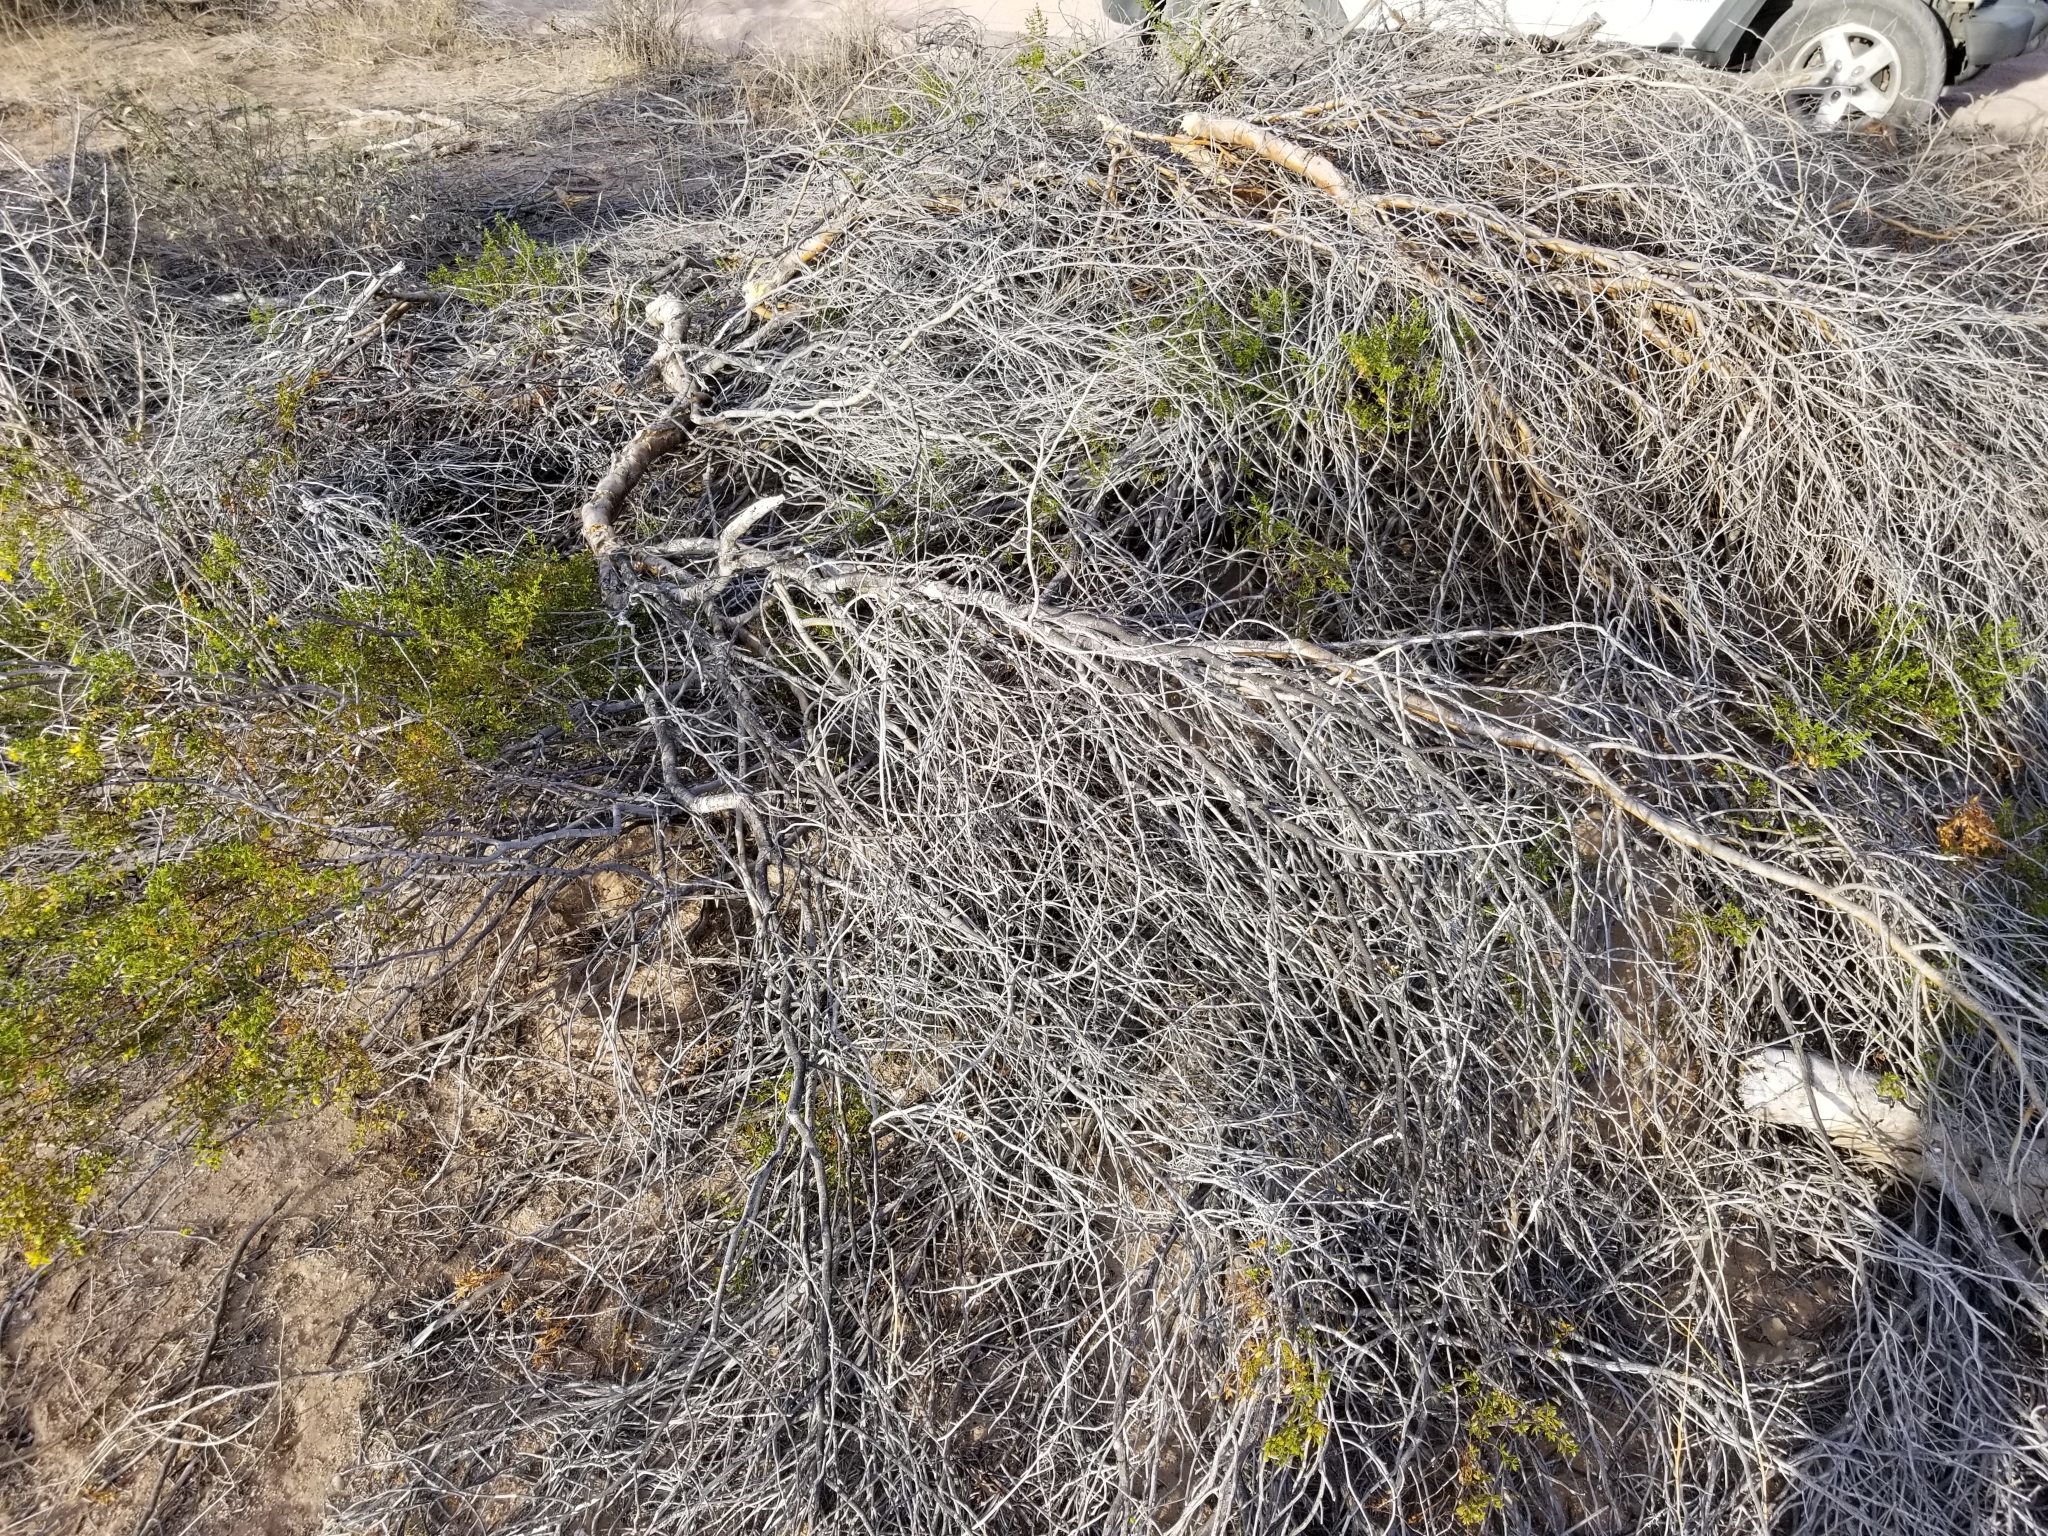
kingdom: Plantae
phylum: Tracheophyta
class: Magnoliopsida
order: Fabales
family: Fabaceae
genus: Parkinsonia
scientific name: Parkinsonia florida
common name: Blue paloverde
